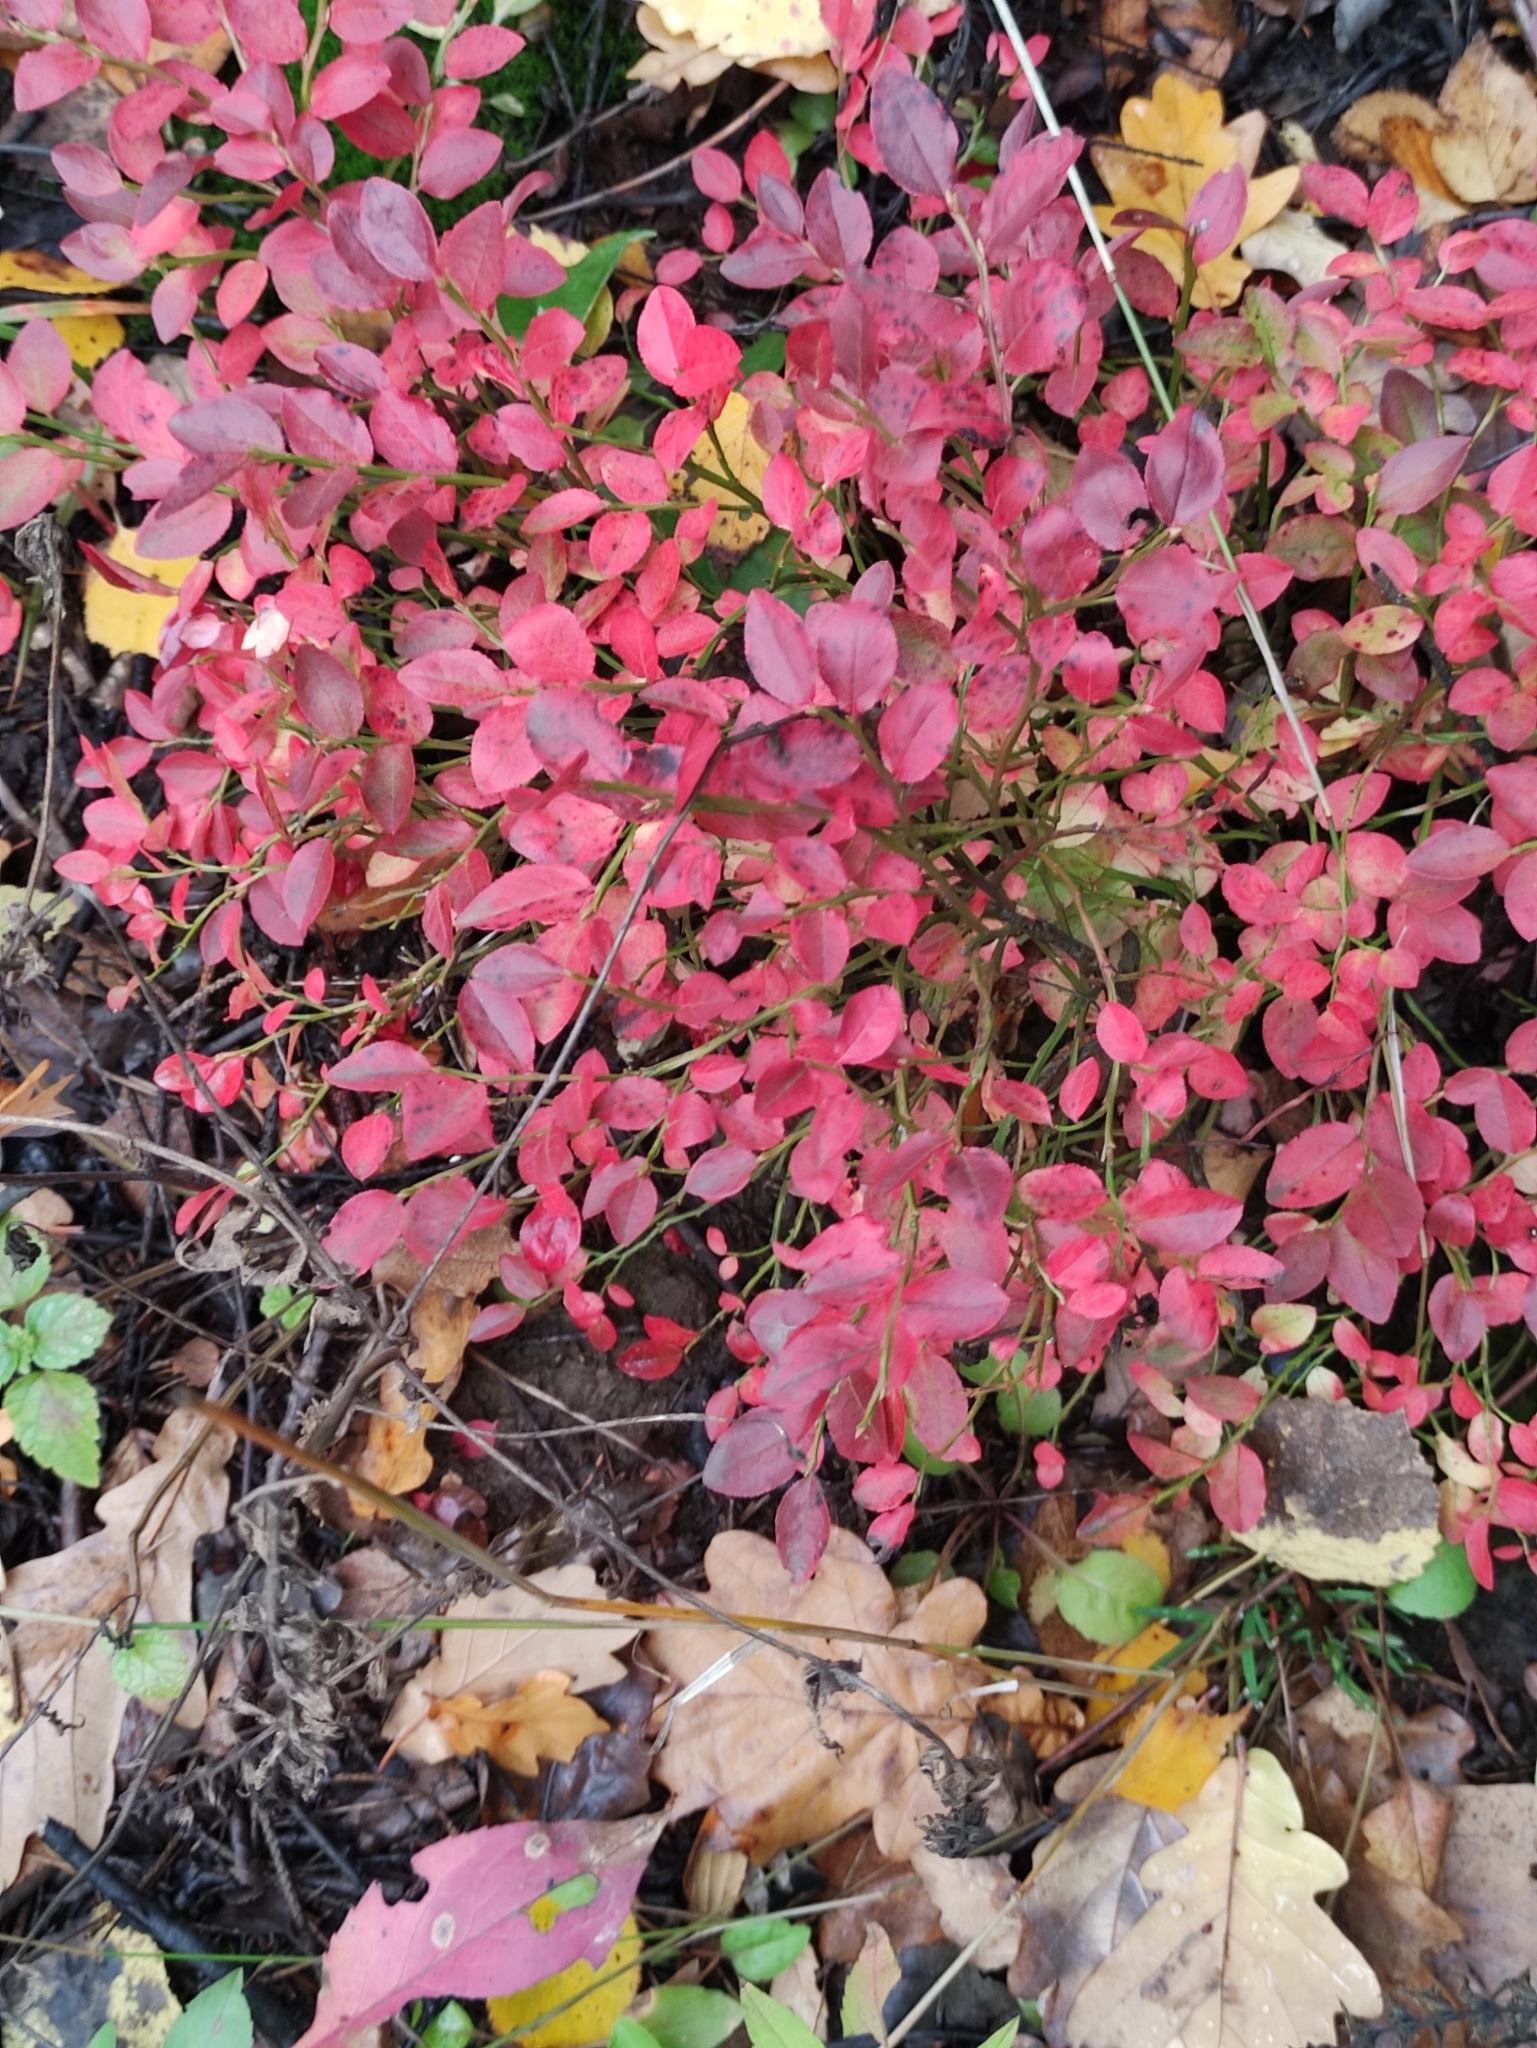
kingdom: Plantae
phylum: Tracheophyta
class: Magnoliopsida
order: Ericales
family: Ericaceae
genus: Vaccinium
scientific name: Vaccinium myrtillus
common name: Bilberry
